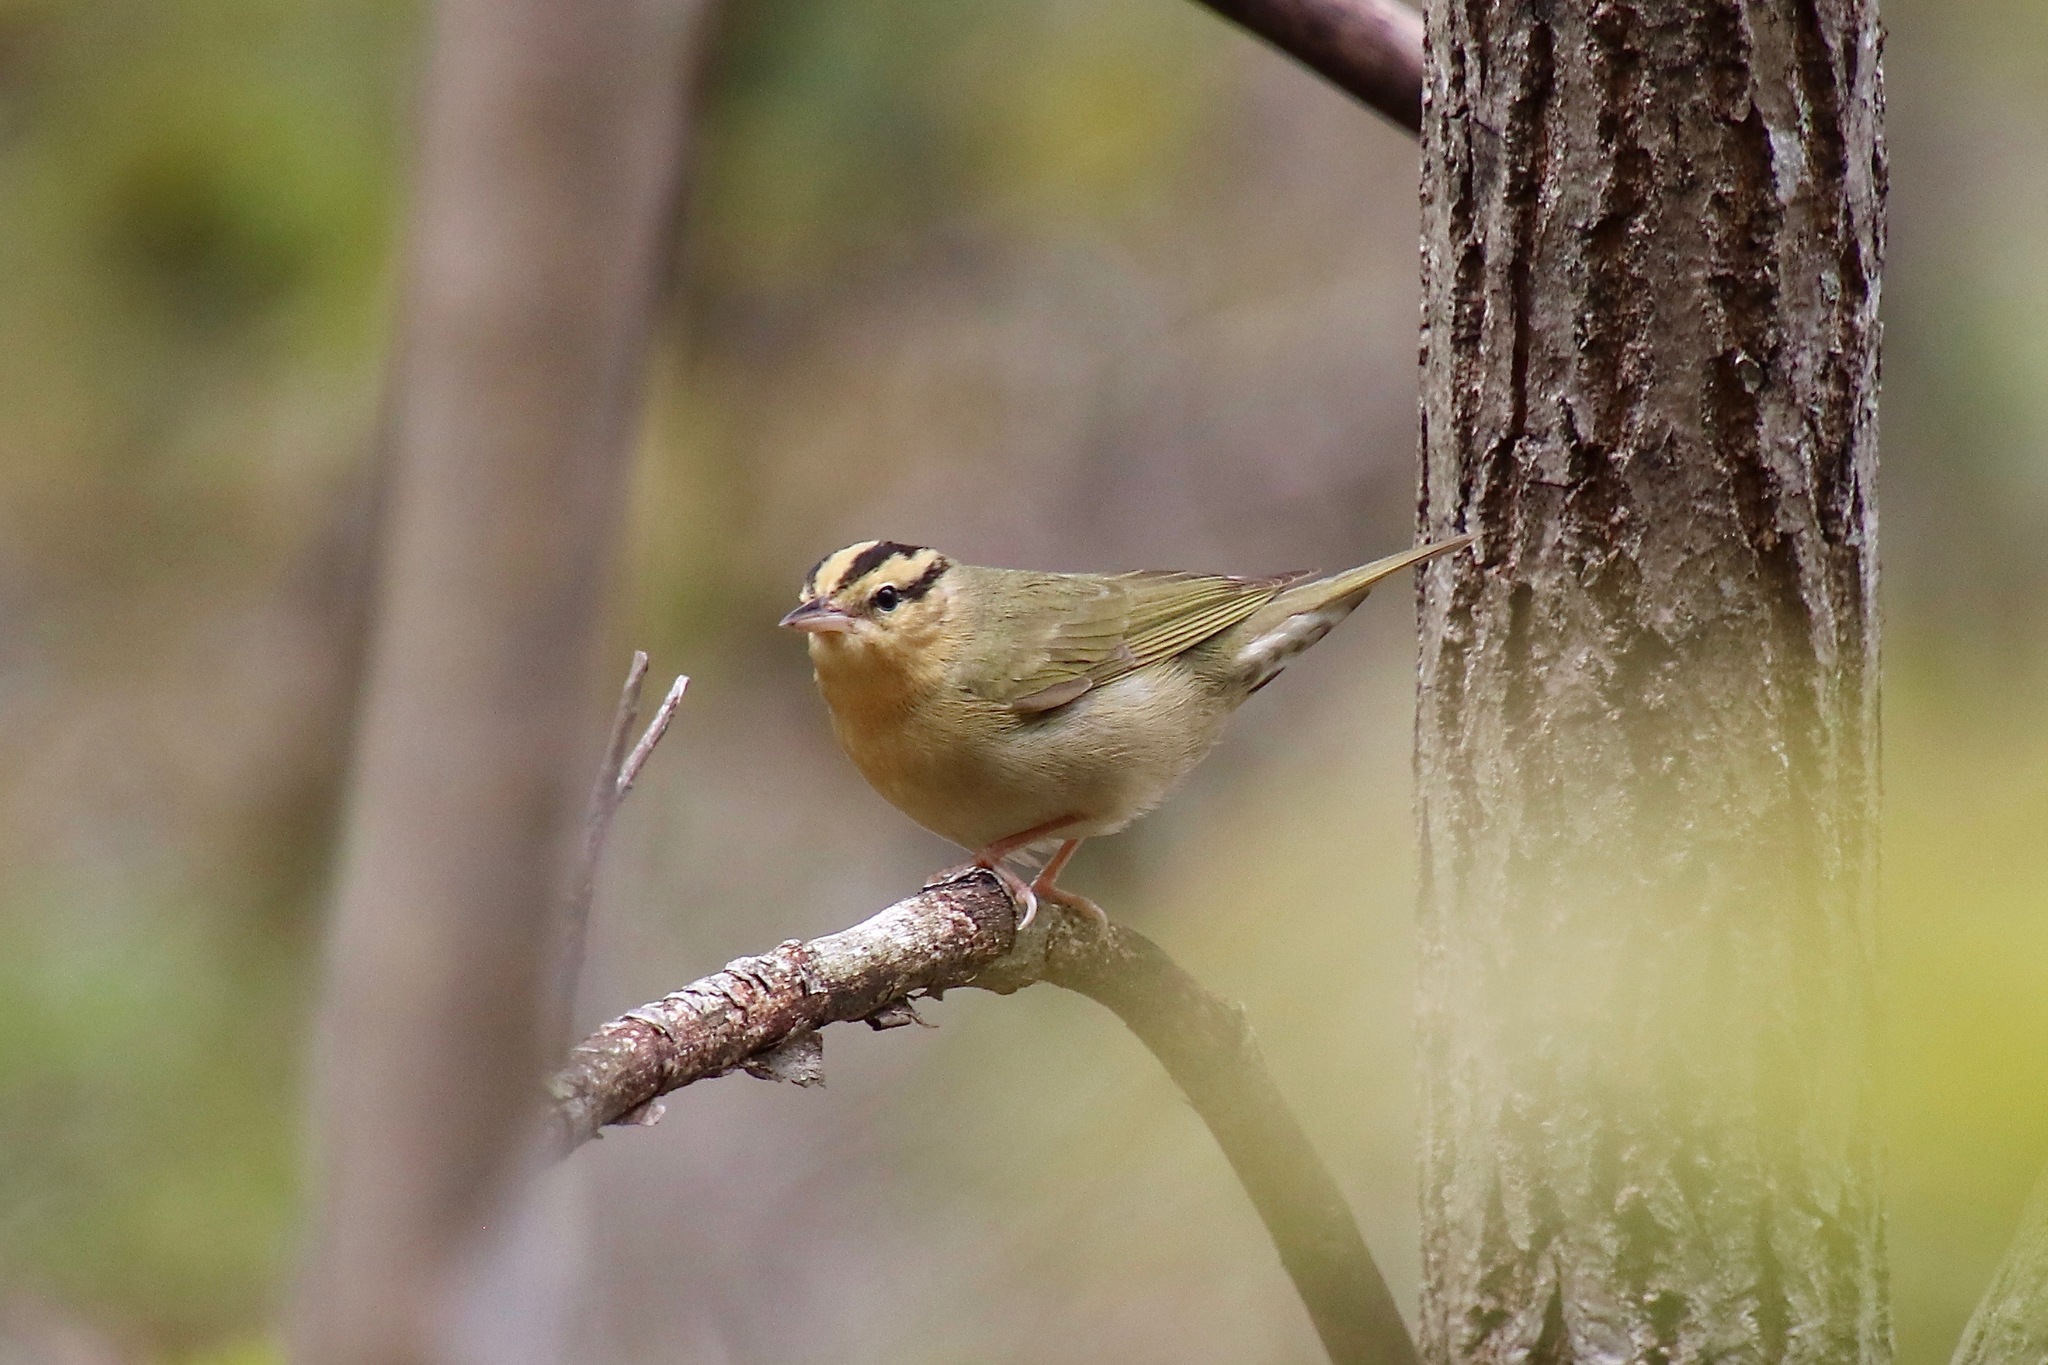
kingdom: Animalia
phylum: Chordata
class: Aves
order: Passeriformes
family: Parulidae
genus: Helmitheros
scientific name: Helmitheros vermivorum
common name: Worm-eating warbler
